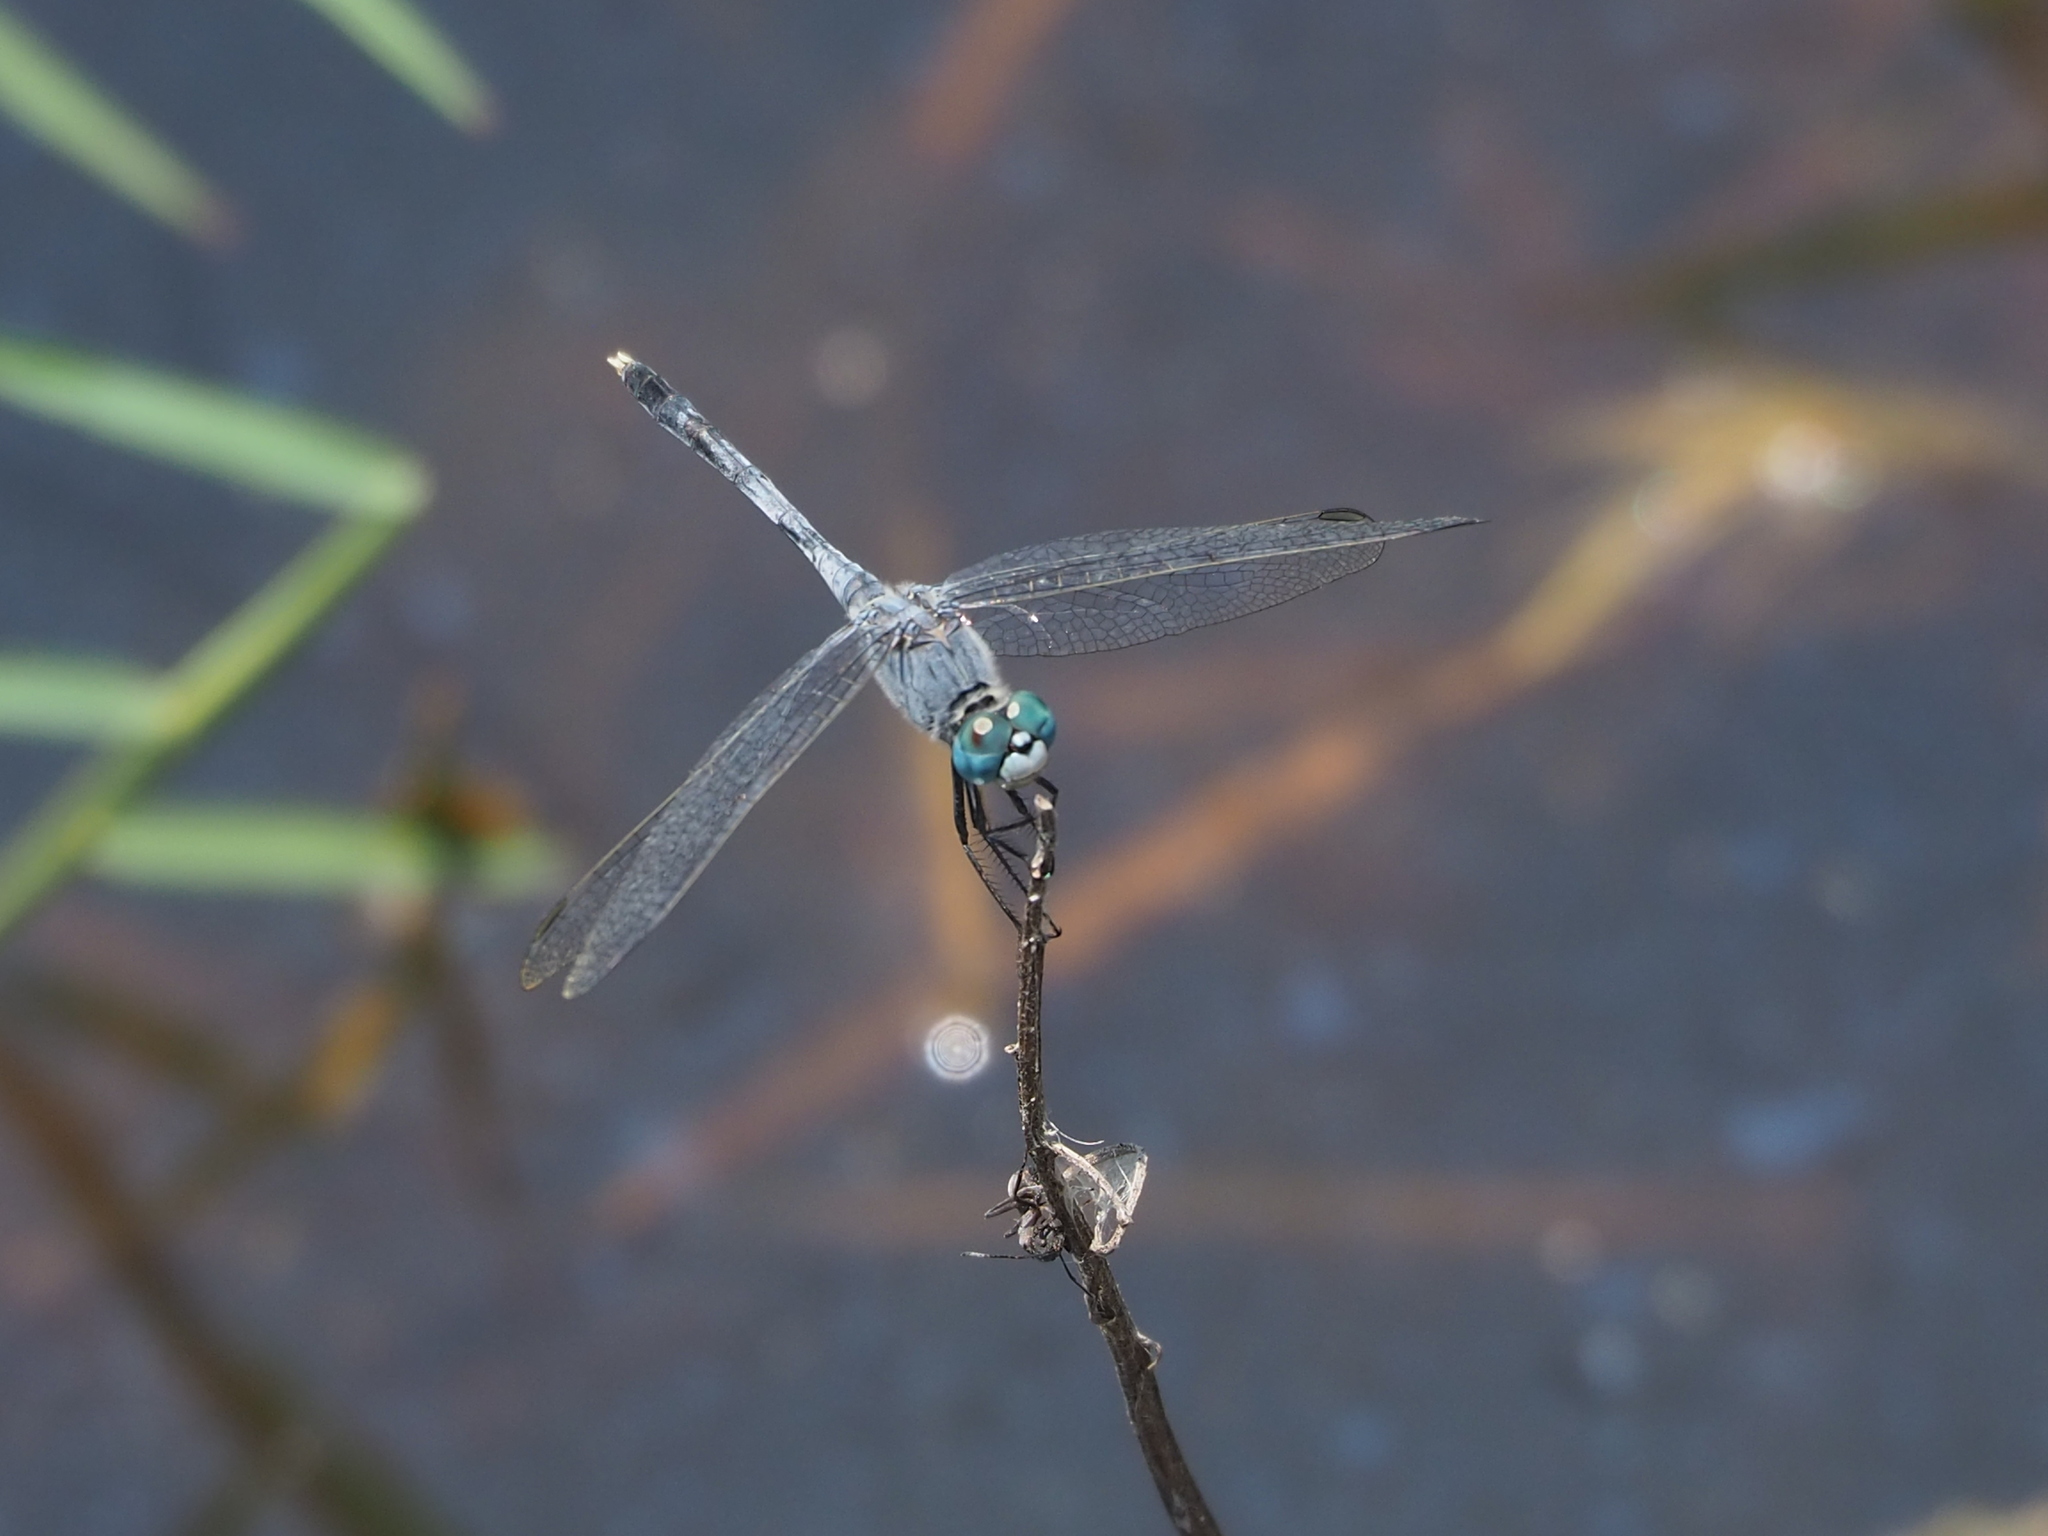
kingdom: Animalia
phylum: Arthropoda
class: Insecta
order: Odonata
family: Libellulidae
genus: Diplacodes
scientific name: Diplacodes trivialis
